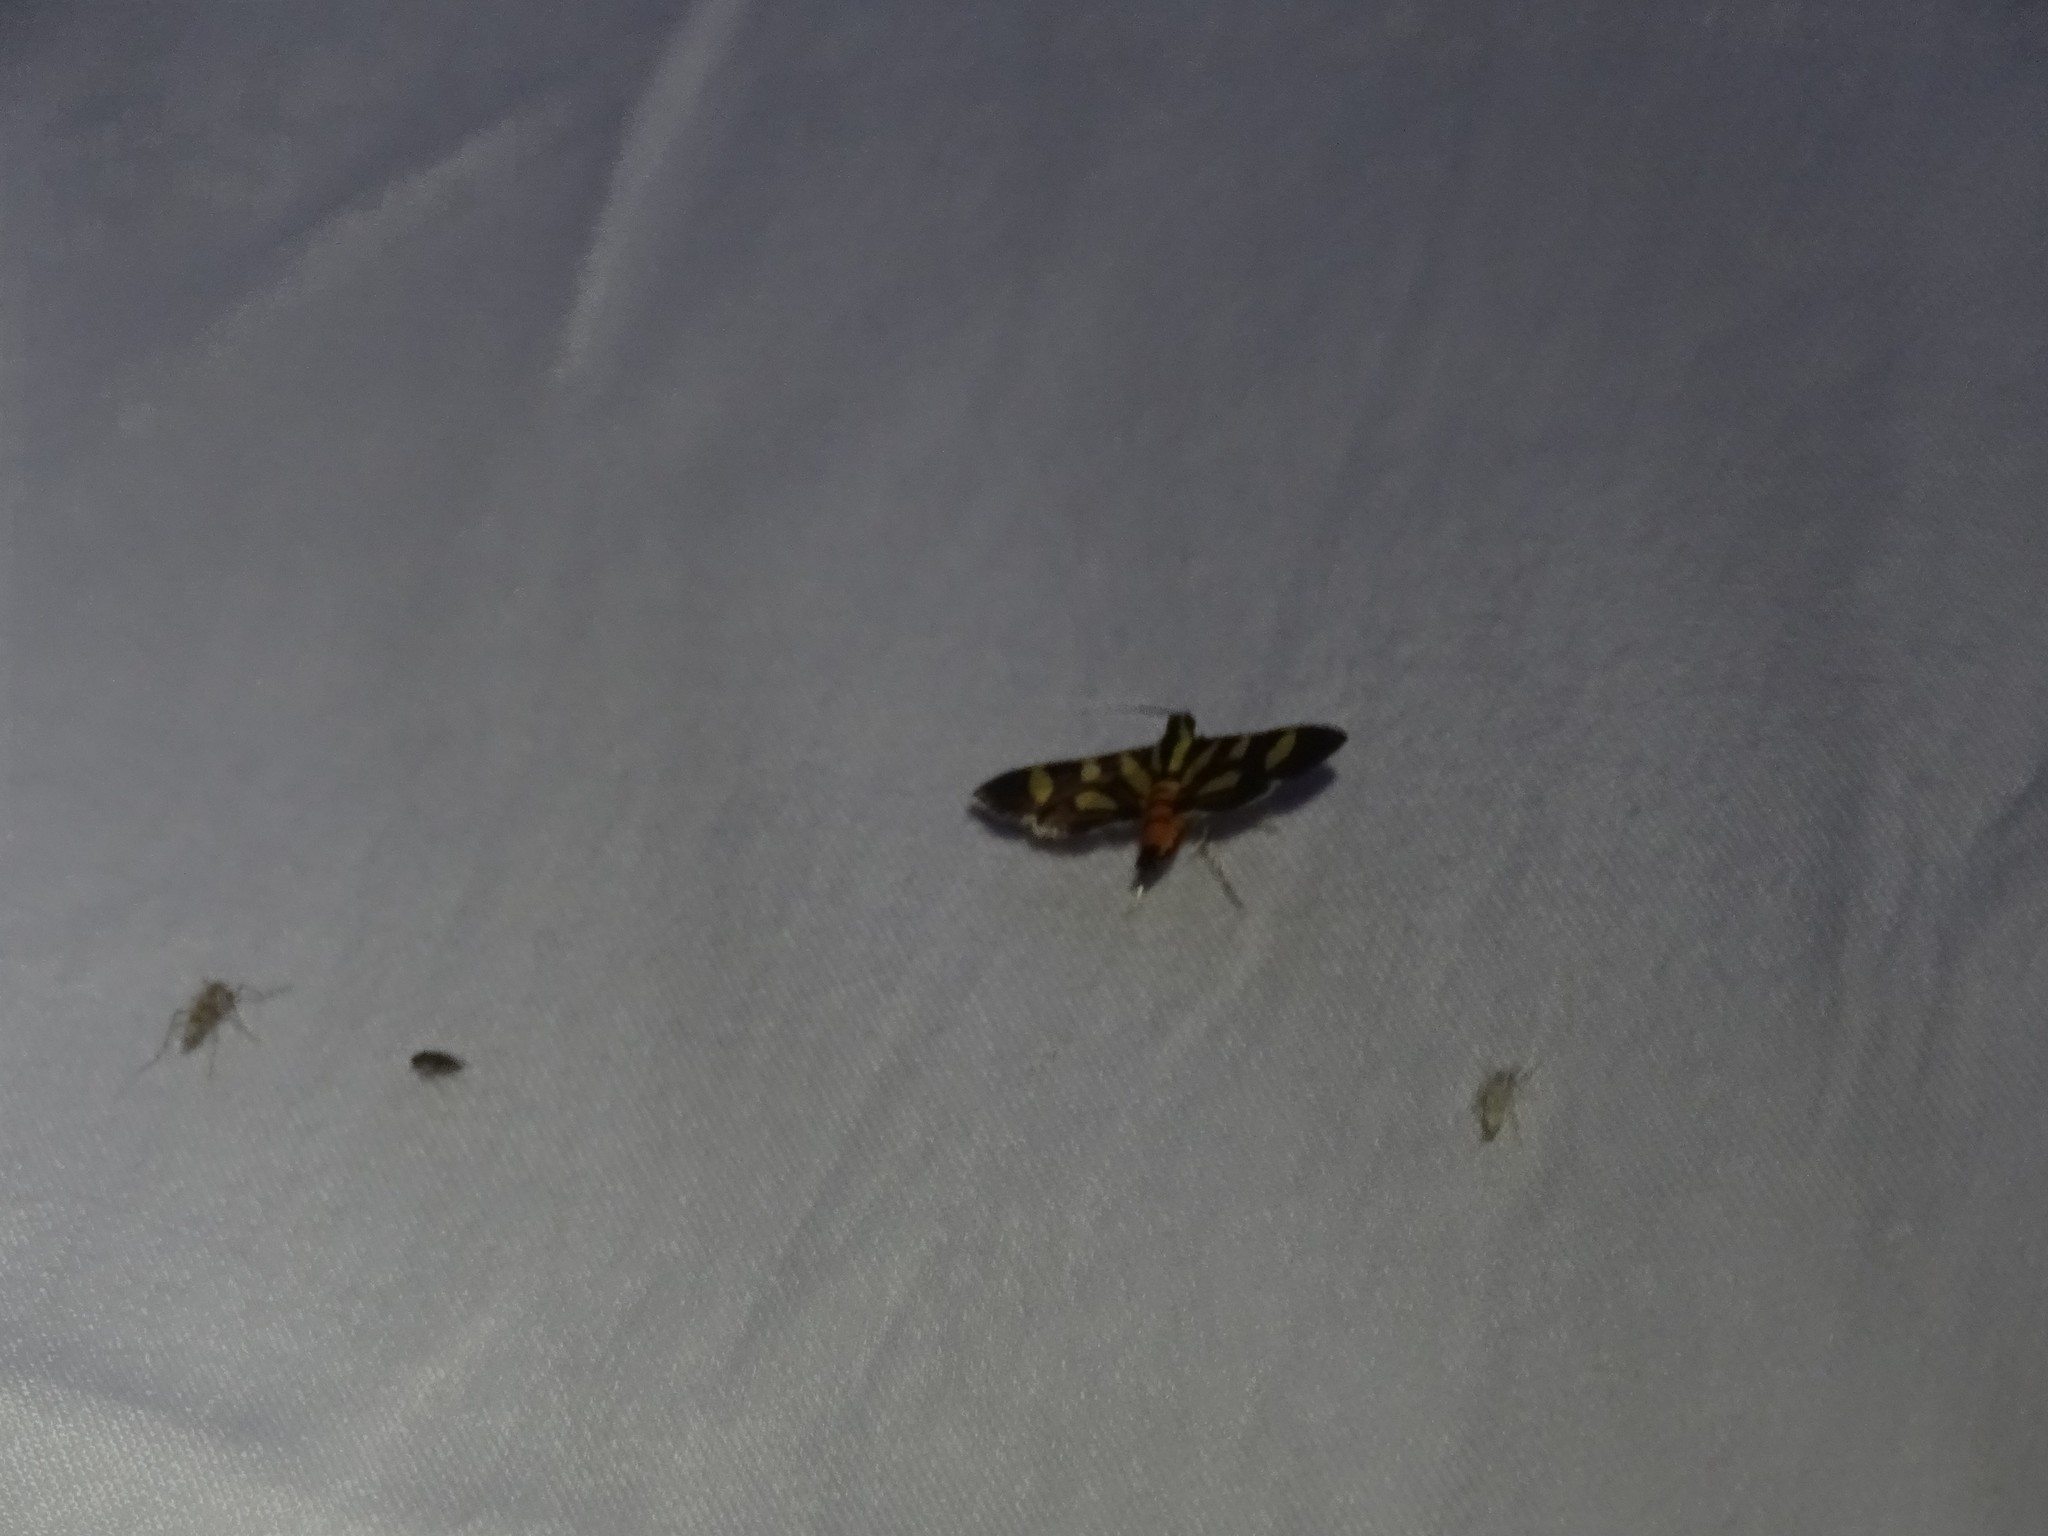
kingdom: Animalia
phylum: Arthropoda
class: Insecta
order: Lepidoptera
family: Crambidae
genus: Syngamia
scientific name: Syngamia florella
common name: Orange-spotted flower moth
